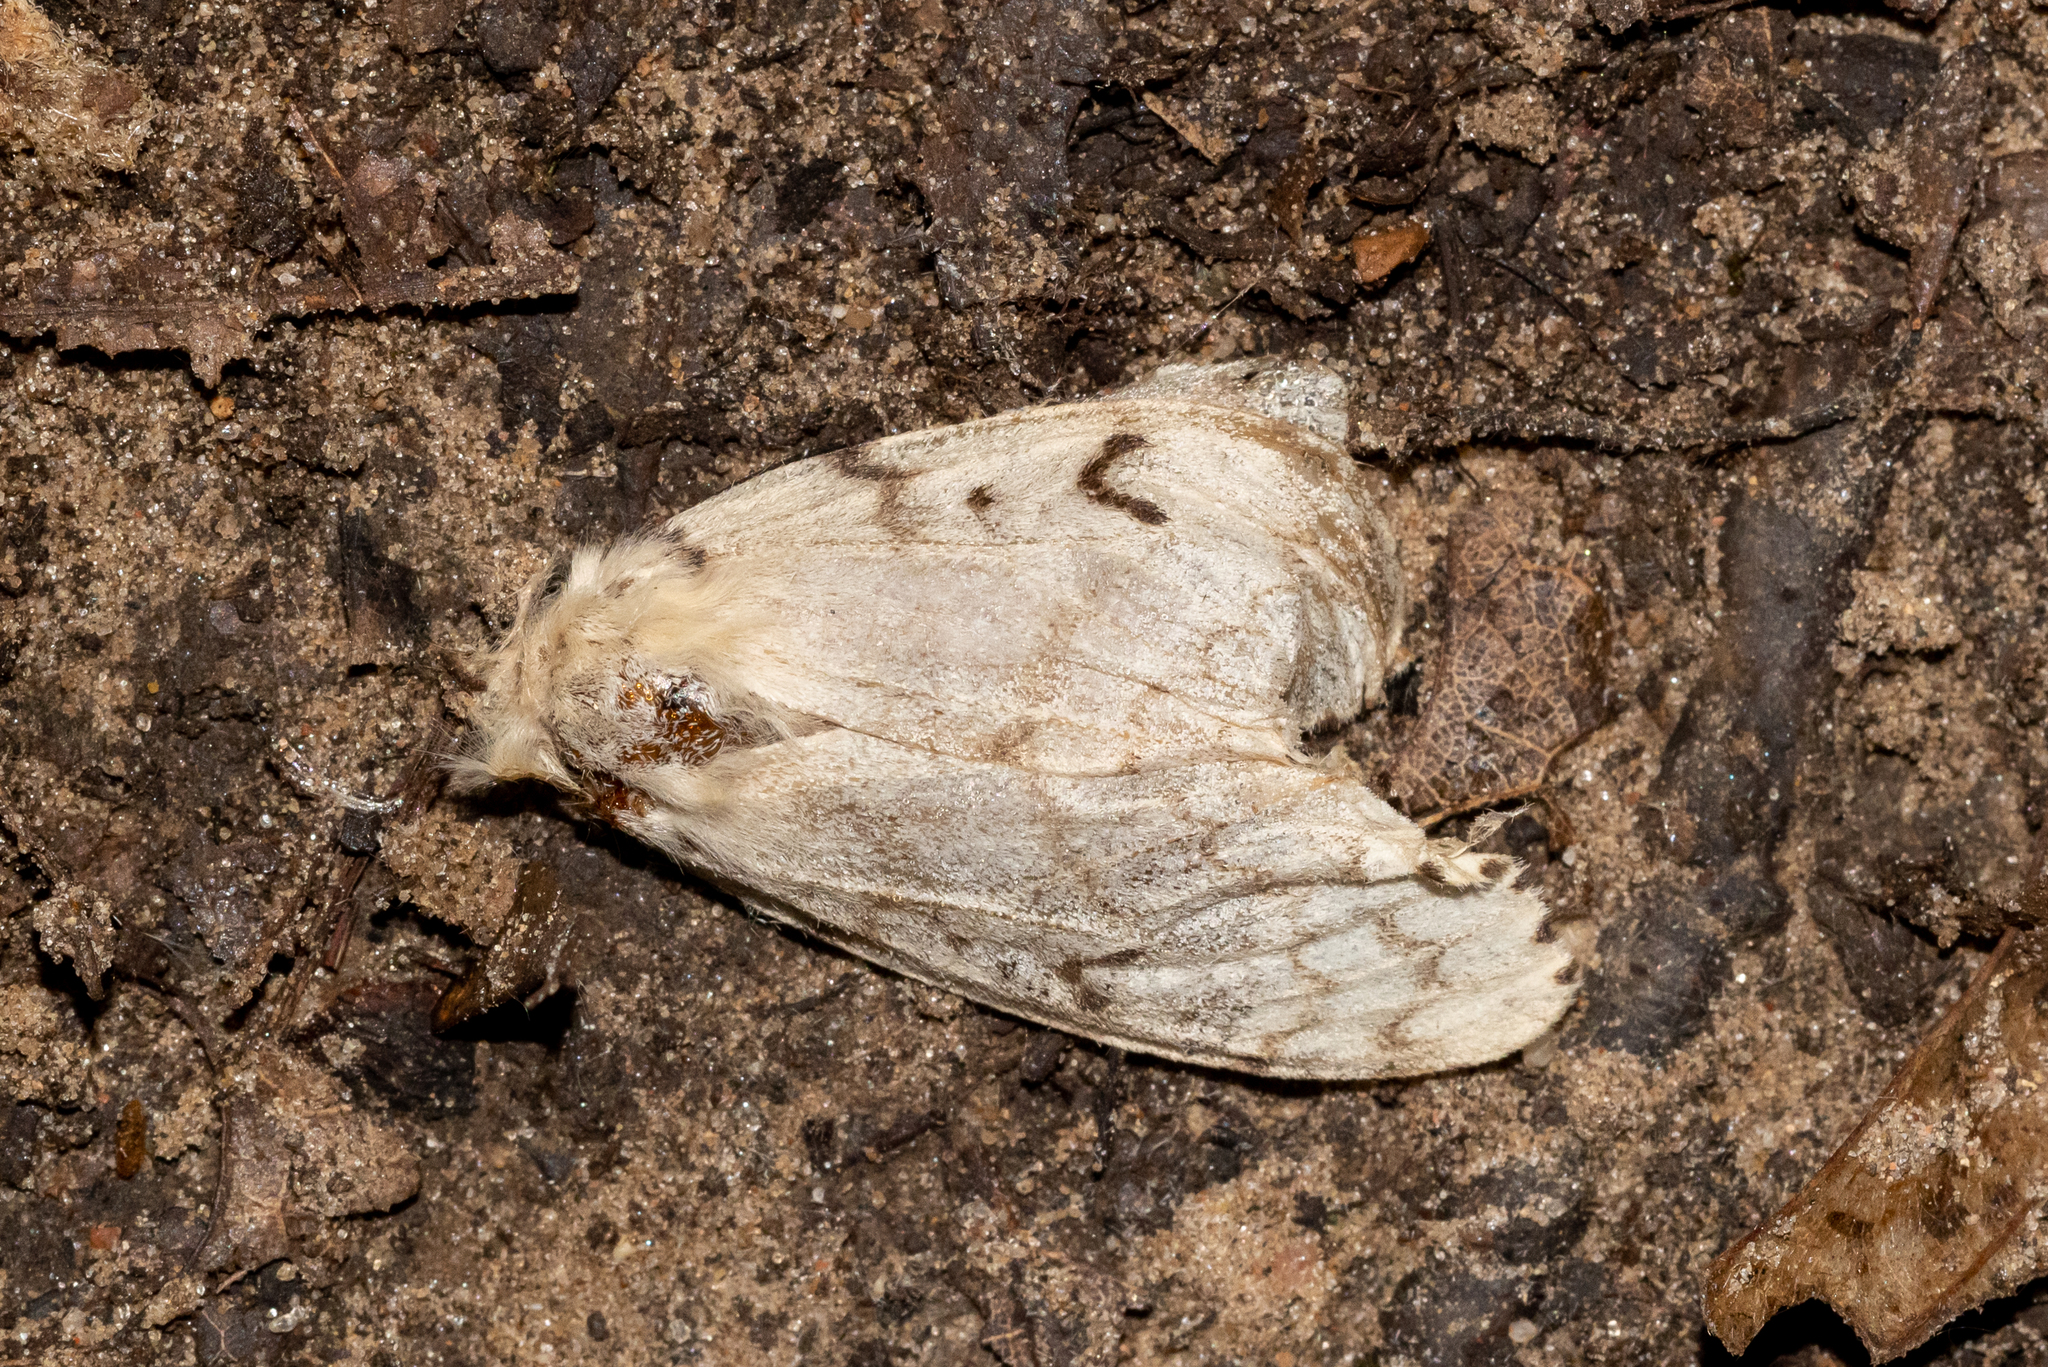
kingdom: Animalia
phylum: Arthropoda
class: Insecta
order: Lepidoptera
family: Erebidae
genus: Lymantria
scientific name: Lymantria dispar
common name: Gypsy moth
